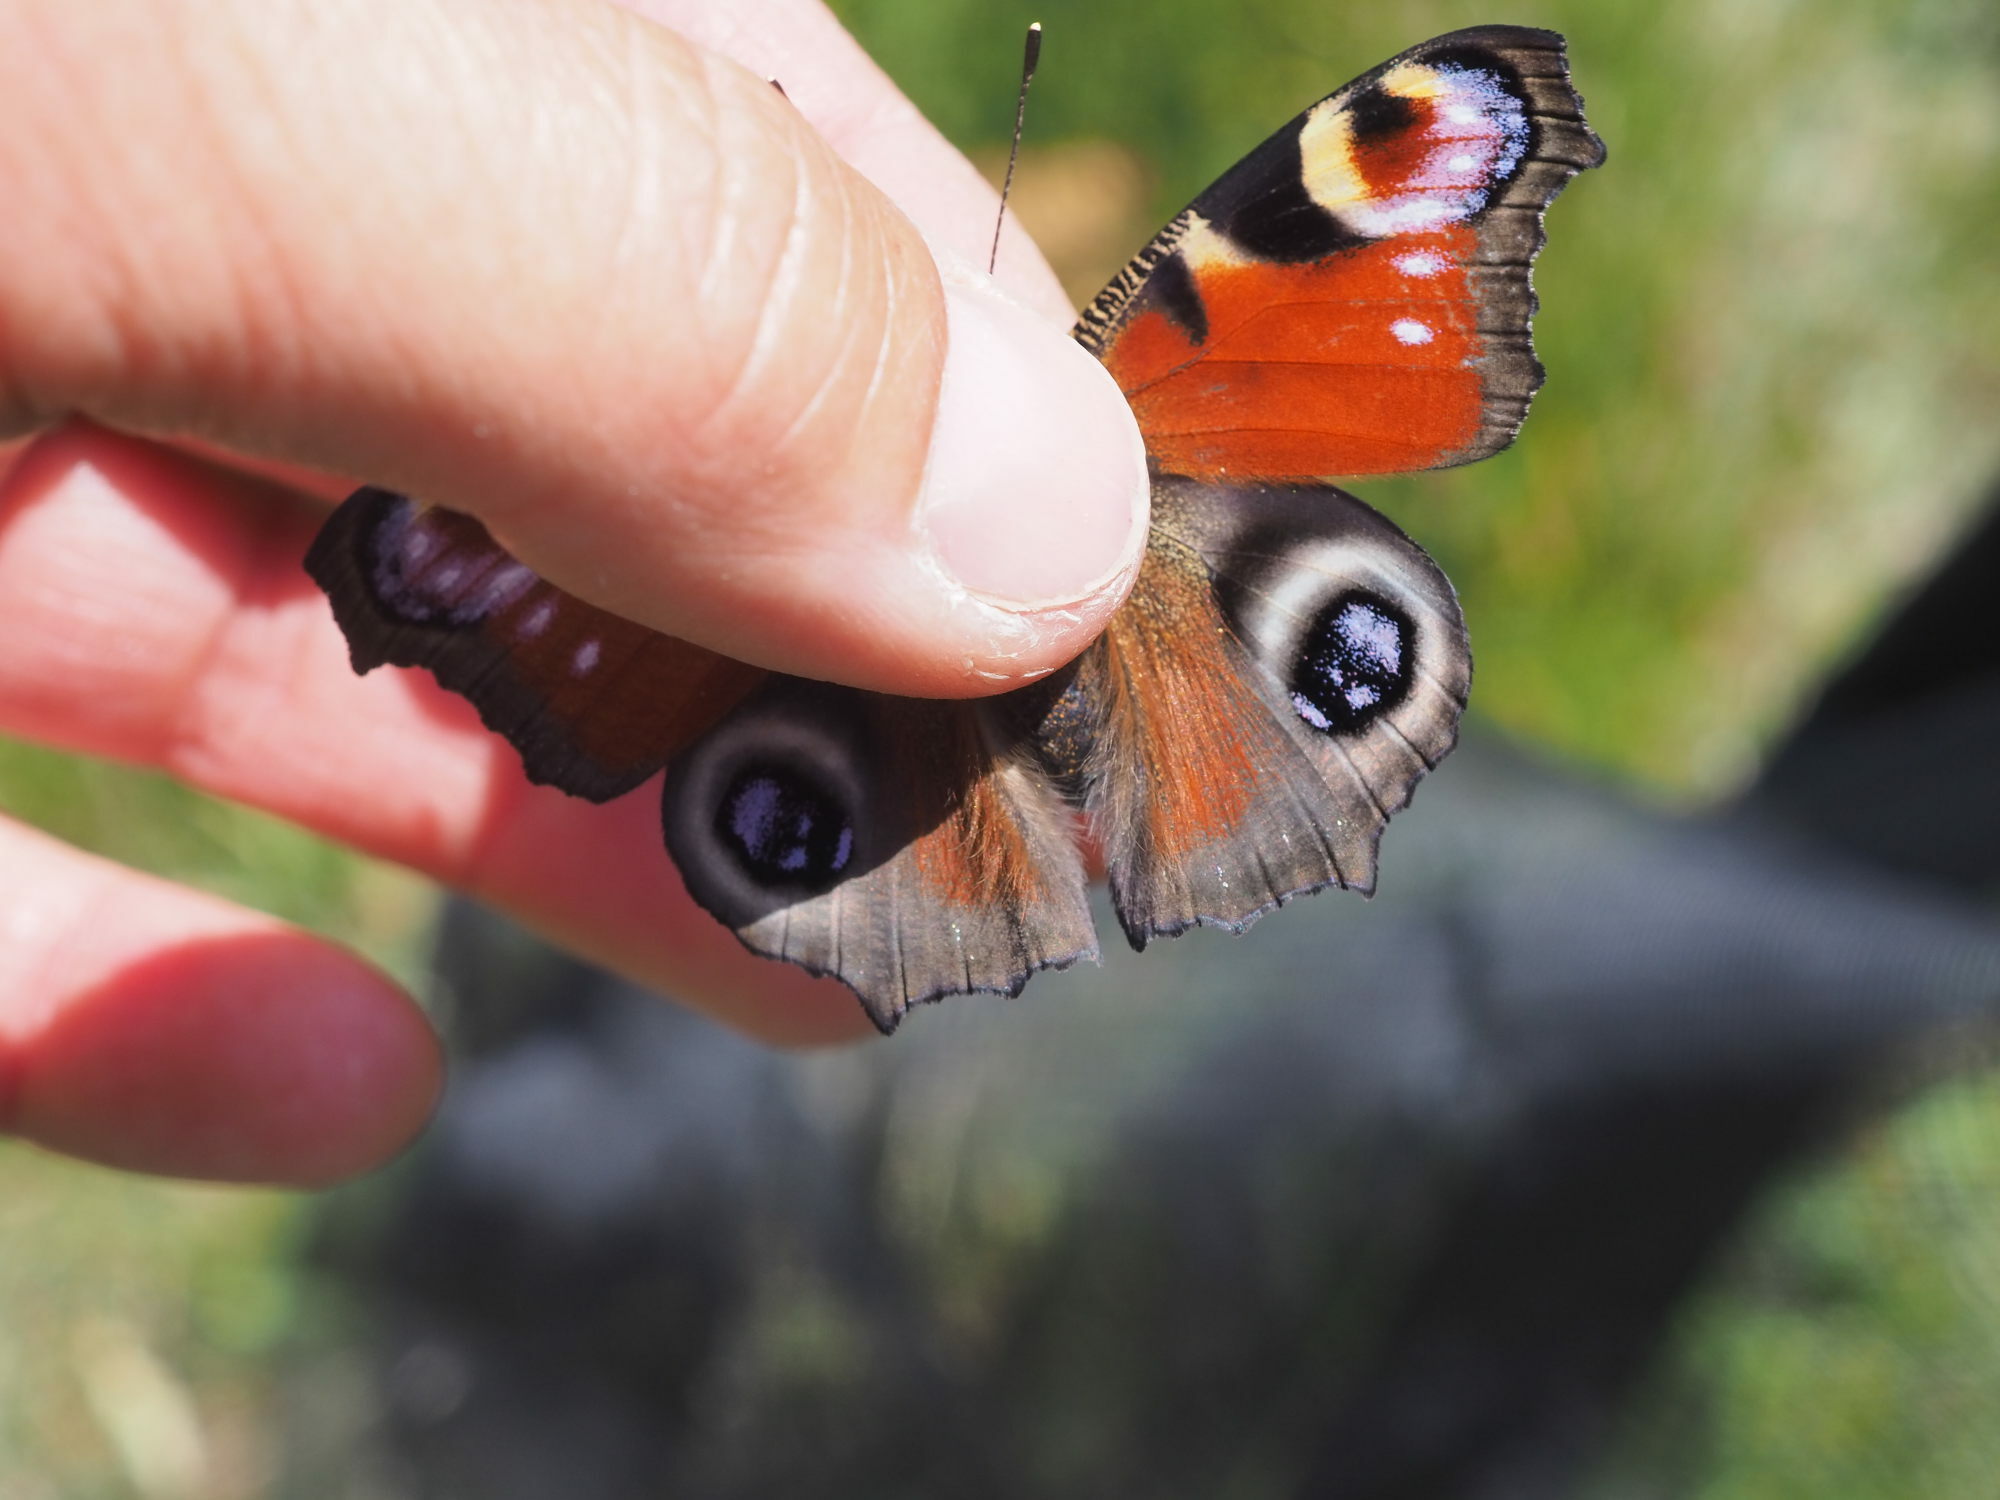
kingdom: Animalia
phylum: Arthropoda
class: Insecta
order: Lepidoptera
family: Nymphalidae
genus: Aglais
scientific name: Aglais io
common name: Peacock
